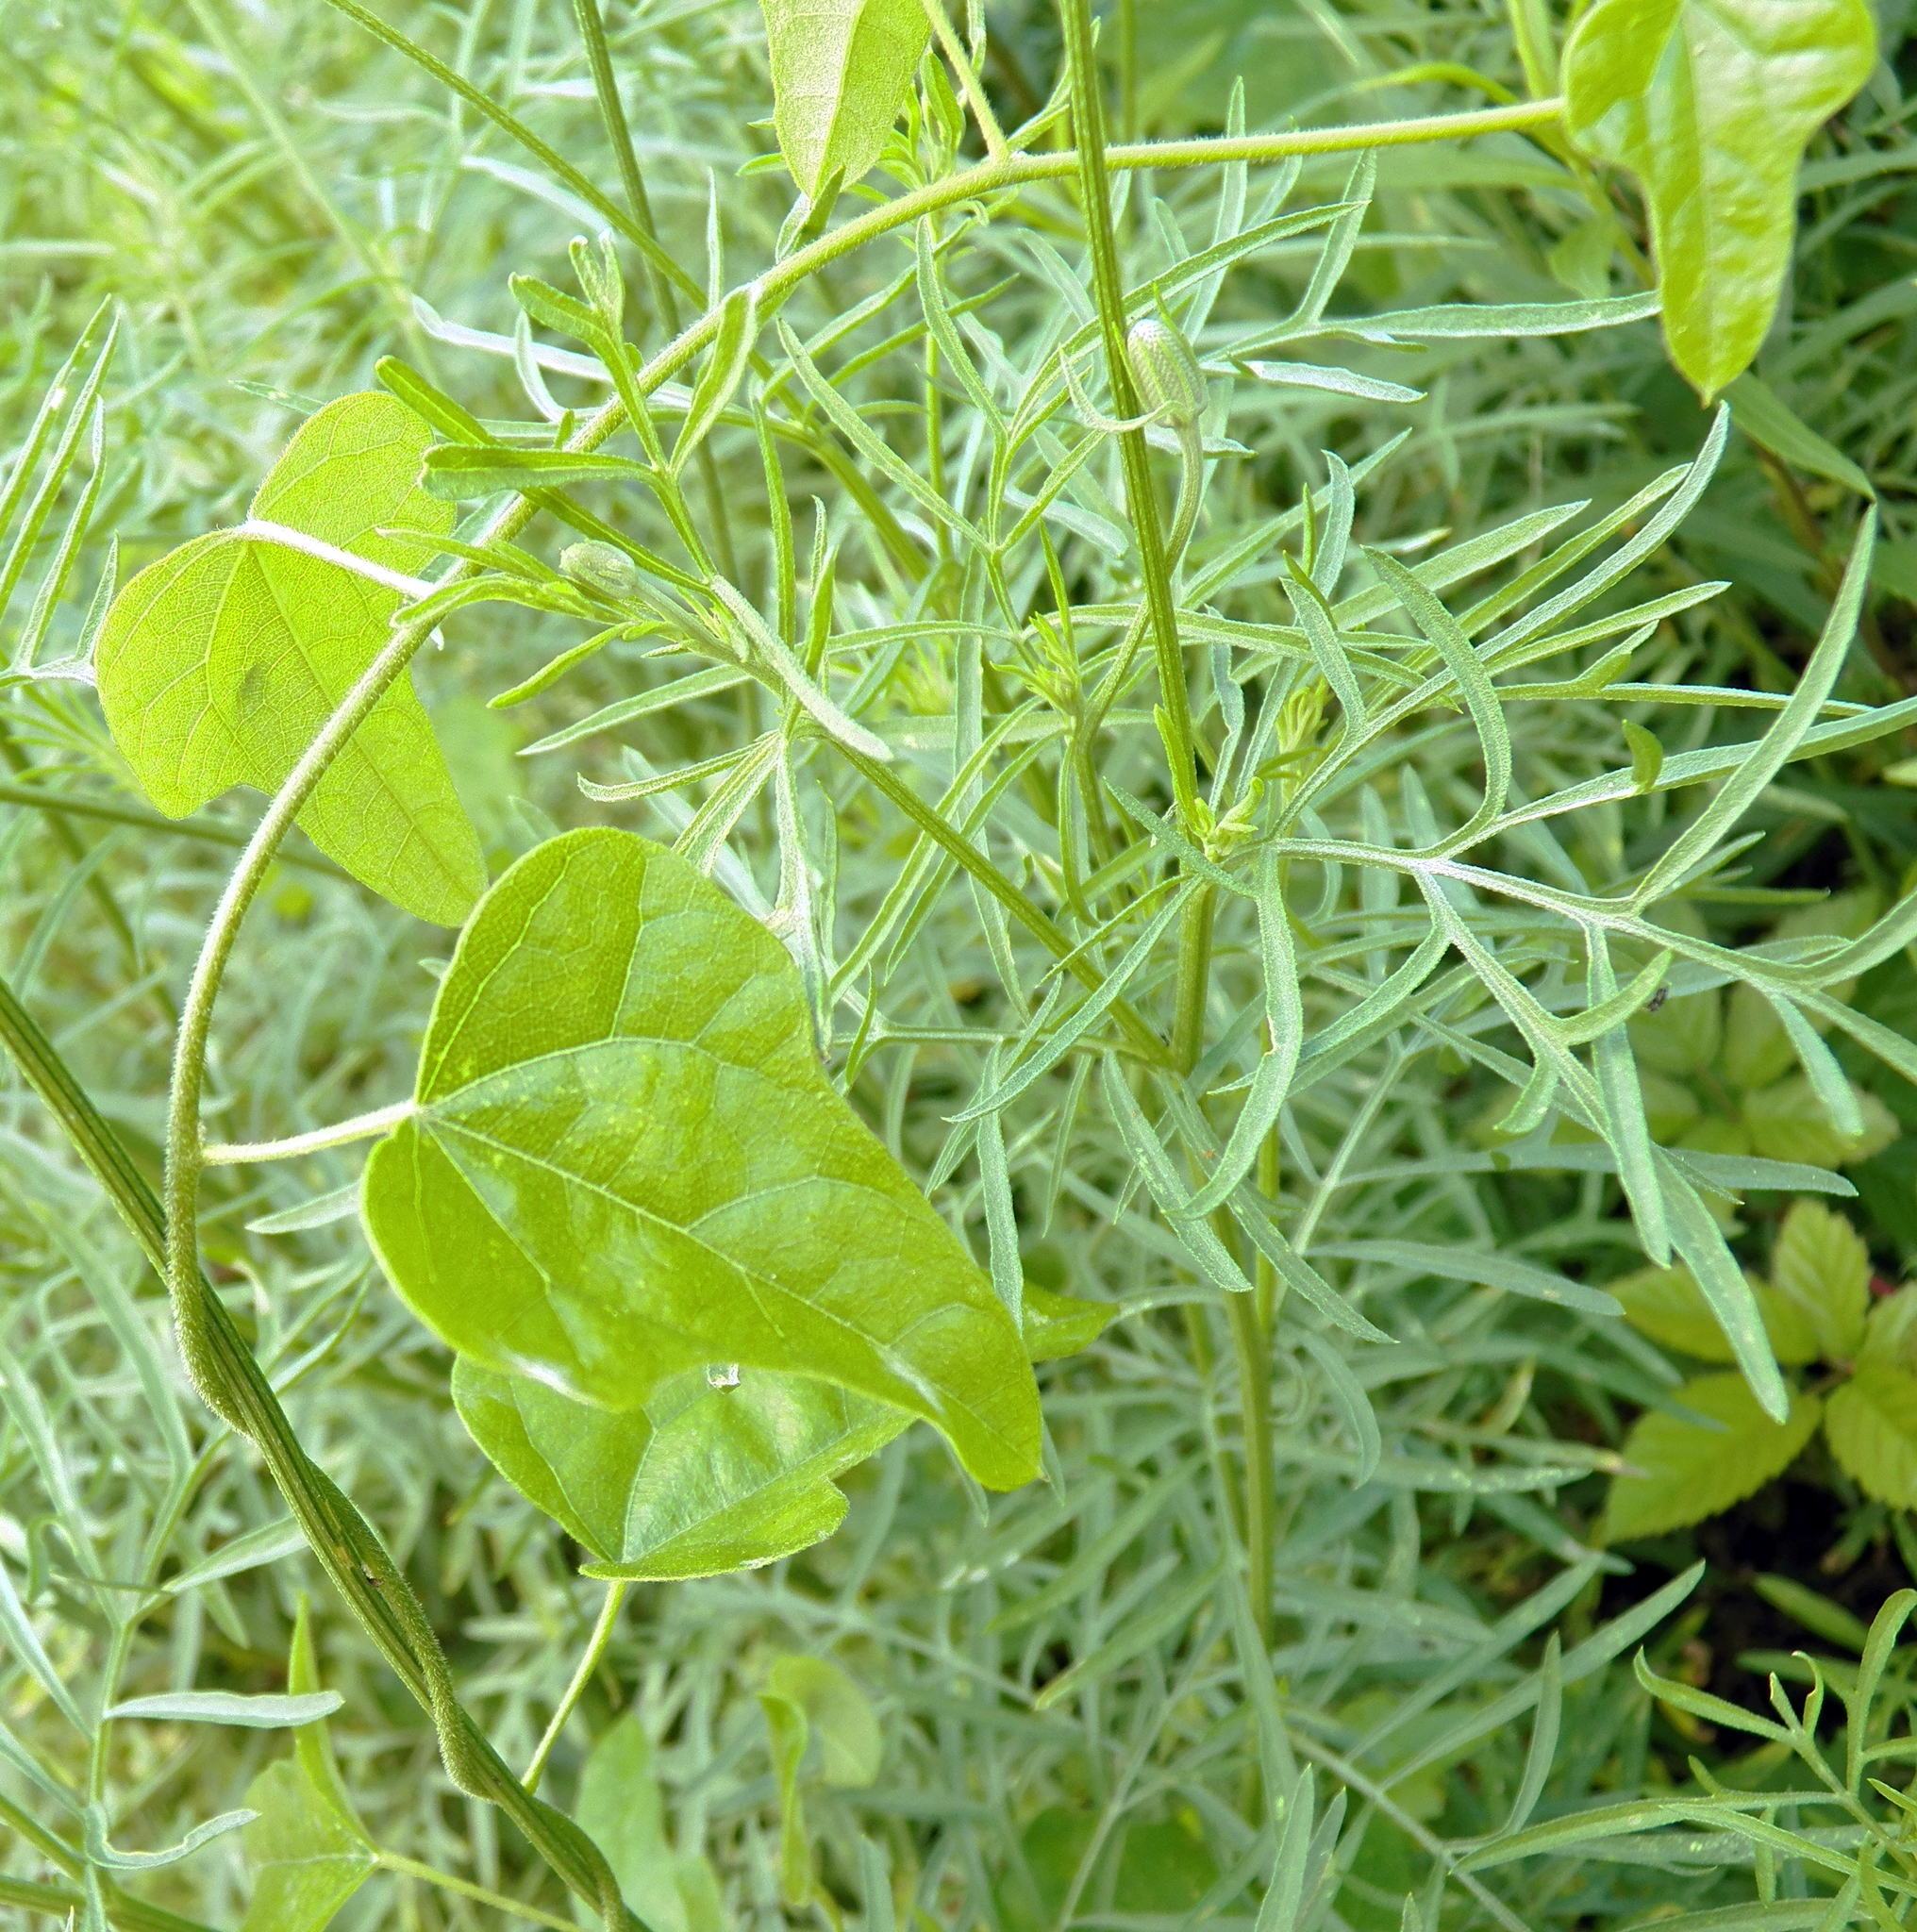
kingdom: Plantae
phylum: Tracheophyta
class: Magnoliopsida
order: Ranunculales
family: Menispermaceae
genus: Cocculus
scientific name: Cocculus carolinus
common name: Carolina moonseed
